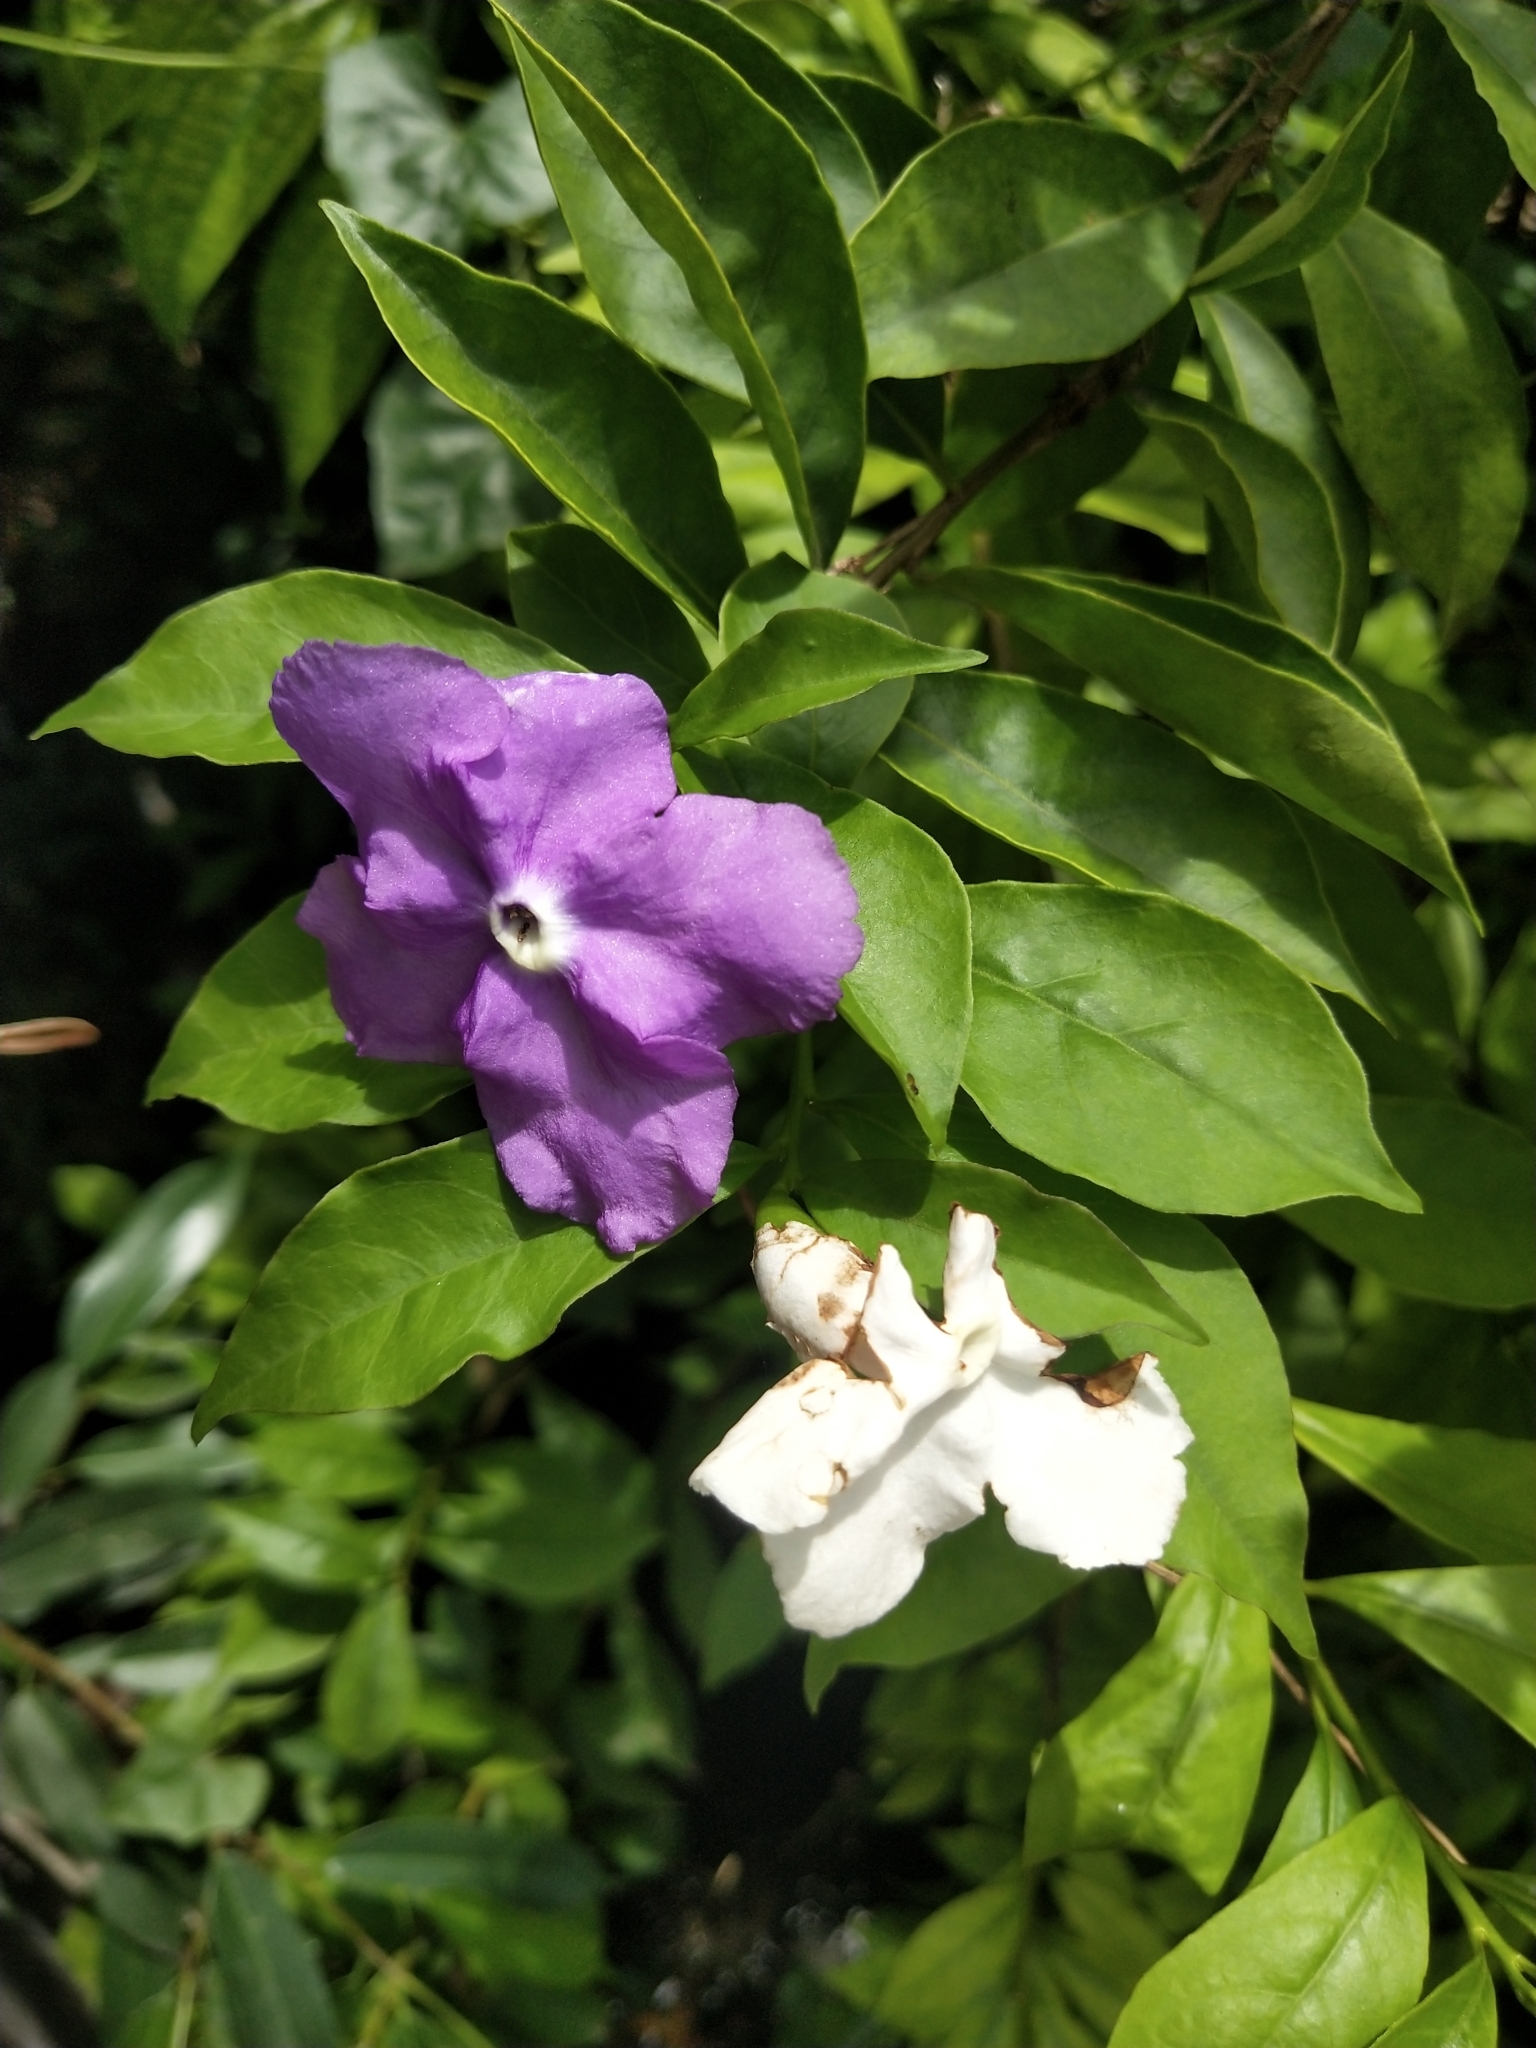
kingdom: Plantae
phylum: Tracheophyta
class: Magnoliopsida
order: Solanales
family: Solanaceae
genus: Brunfelsia
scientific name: Brunfelsia pauciflora
